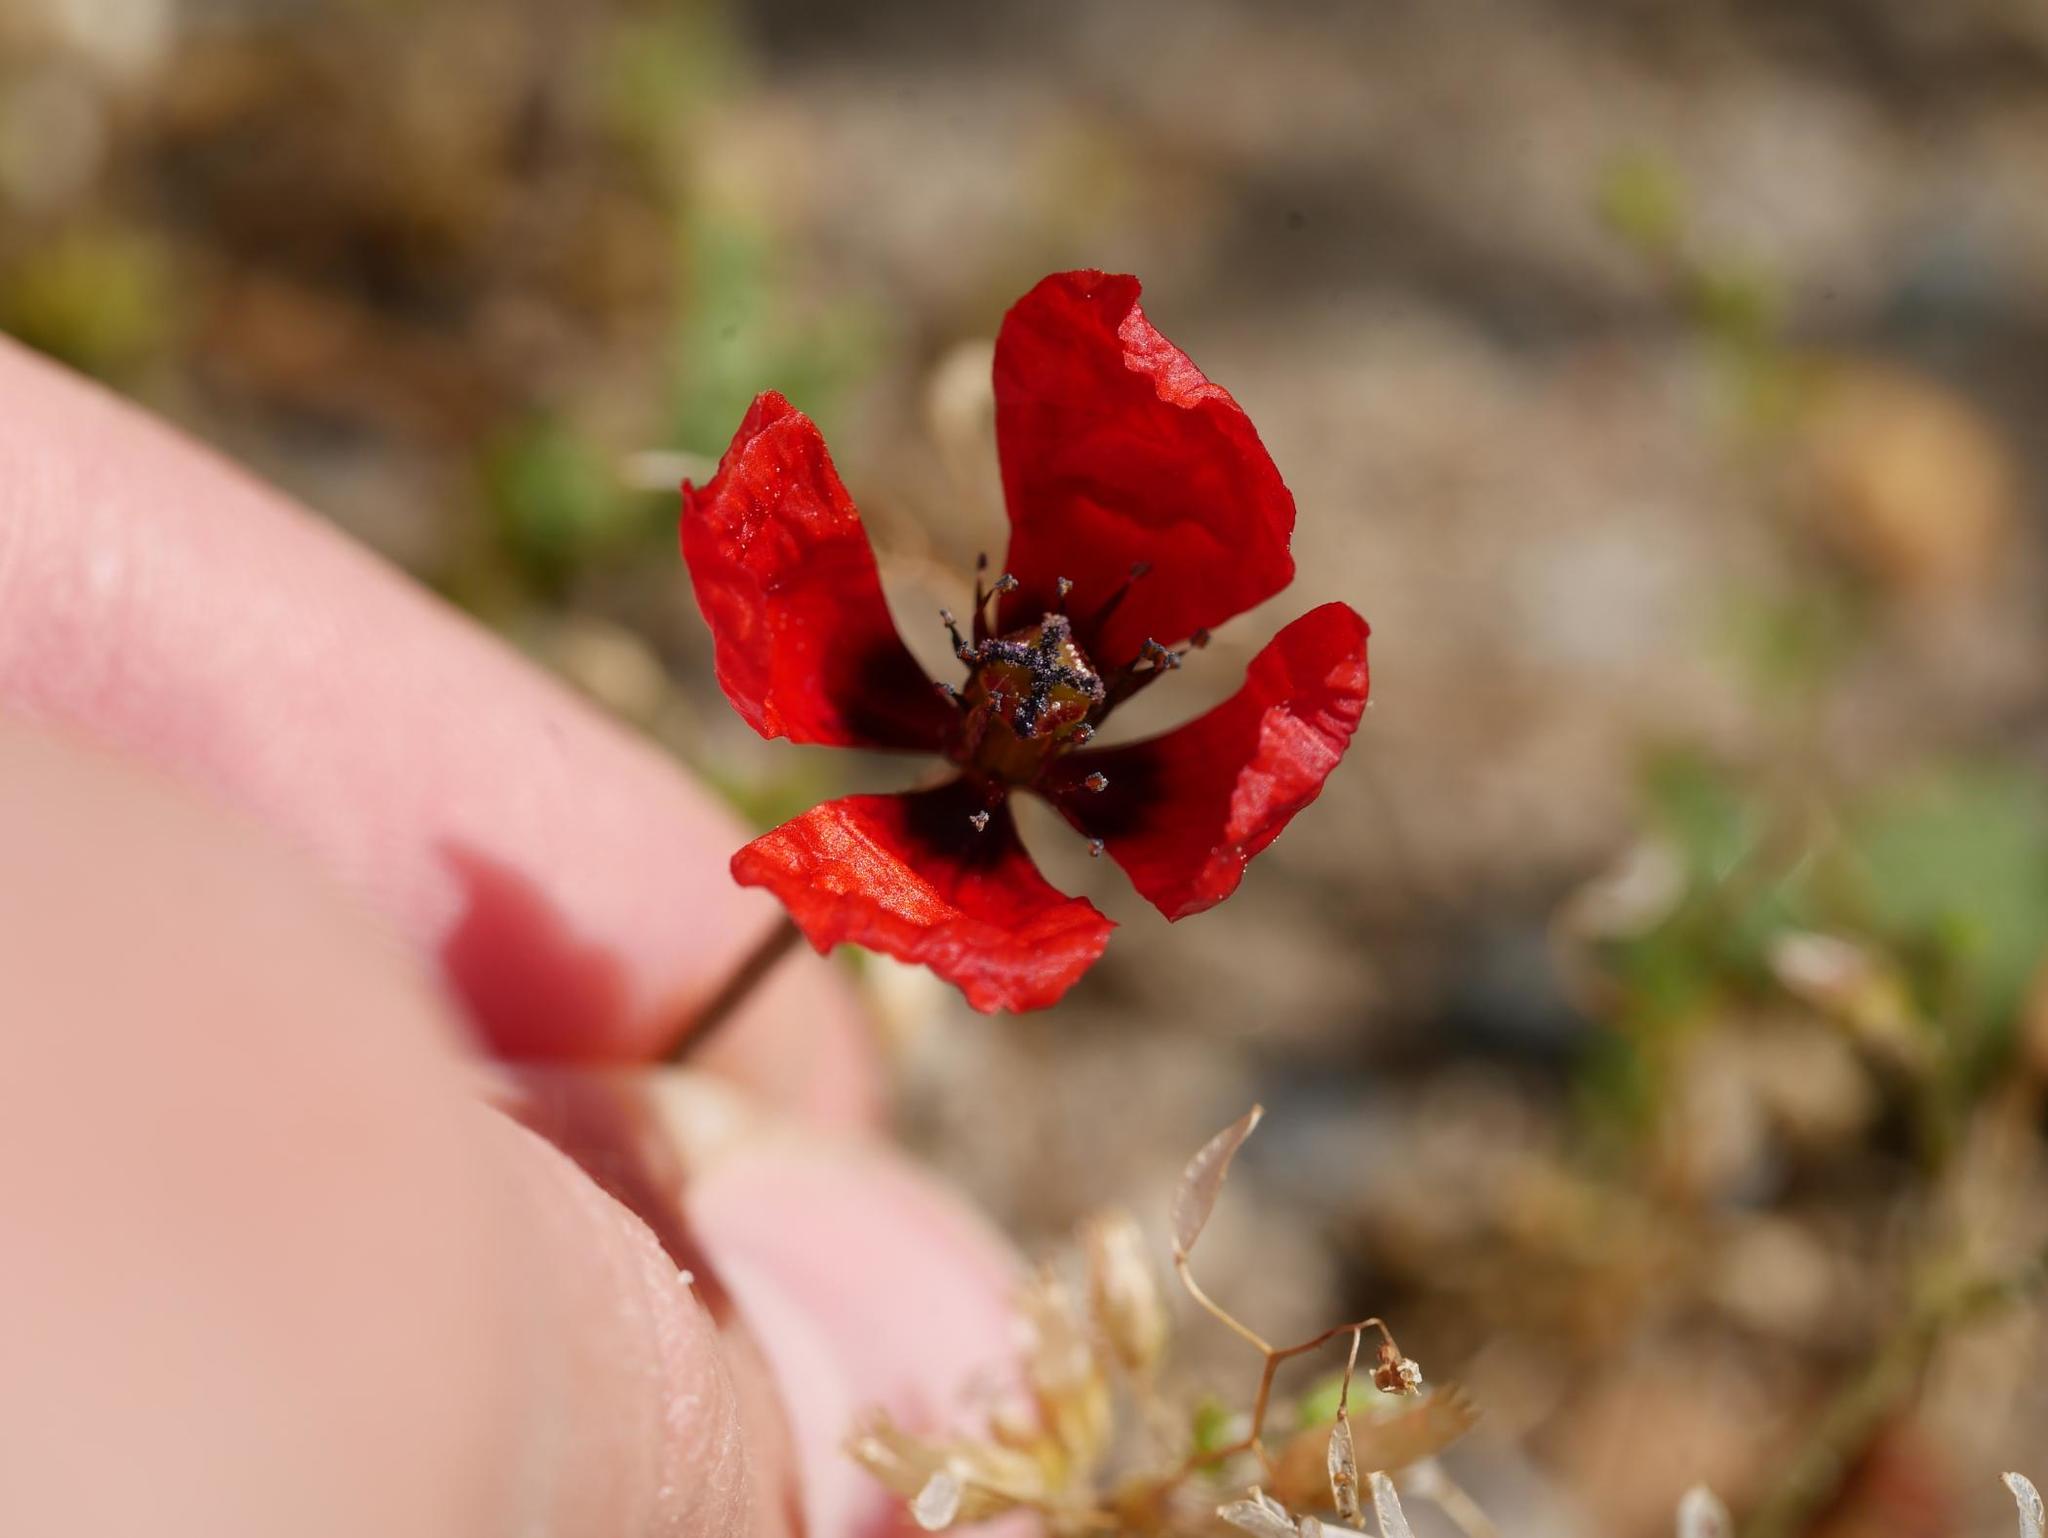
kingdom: Plantae
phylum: Tracheophyta
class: Magnoliopsida
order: Ranunculales
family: Papaveraceae
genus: Roemeria
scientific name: Roemeria argemone
